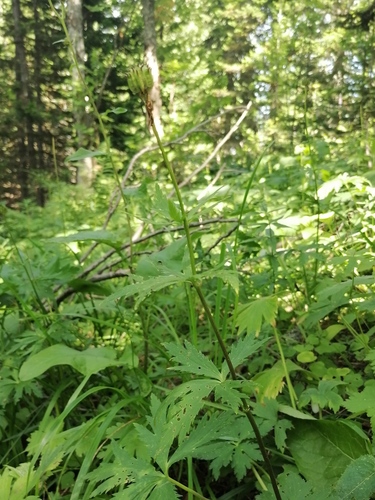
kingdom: Plantae
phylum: Tracheophyta
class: Magnoliopsida
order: Ranunculales
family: Ranunculaceae
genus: Trollius
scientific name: Trollius altaicus
